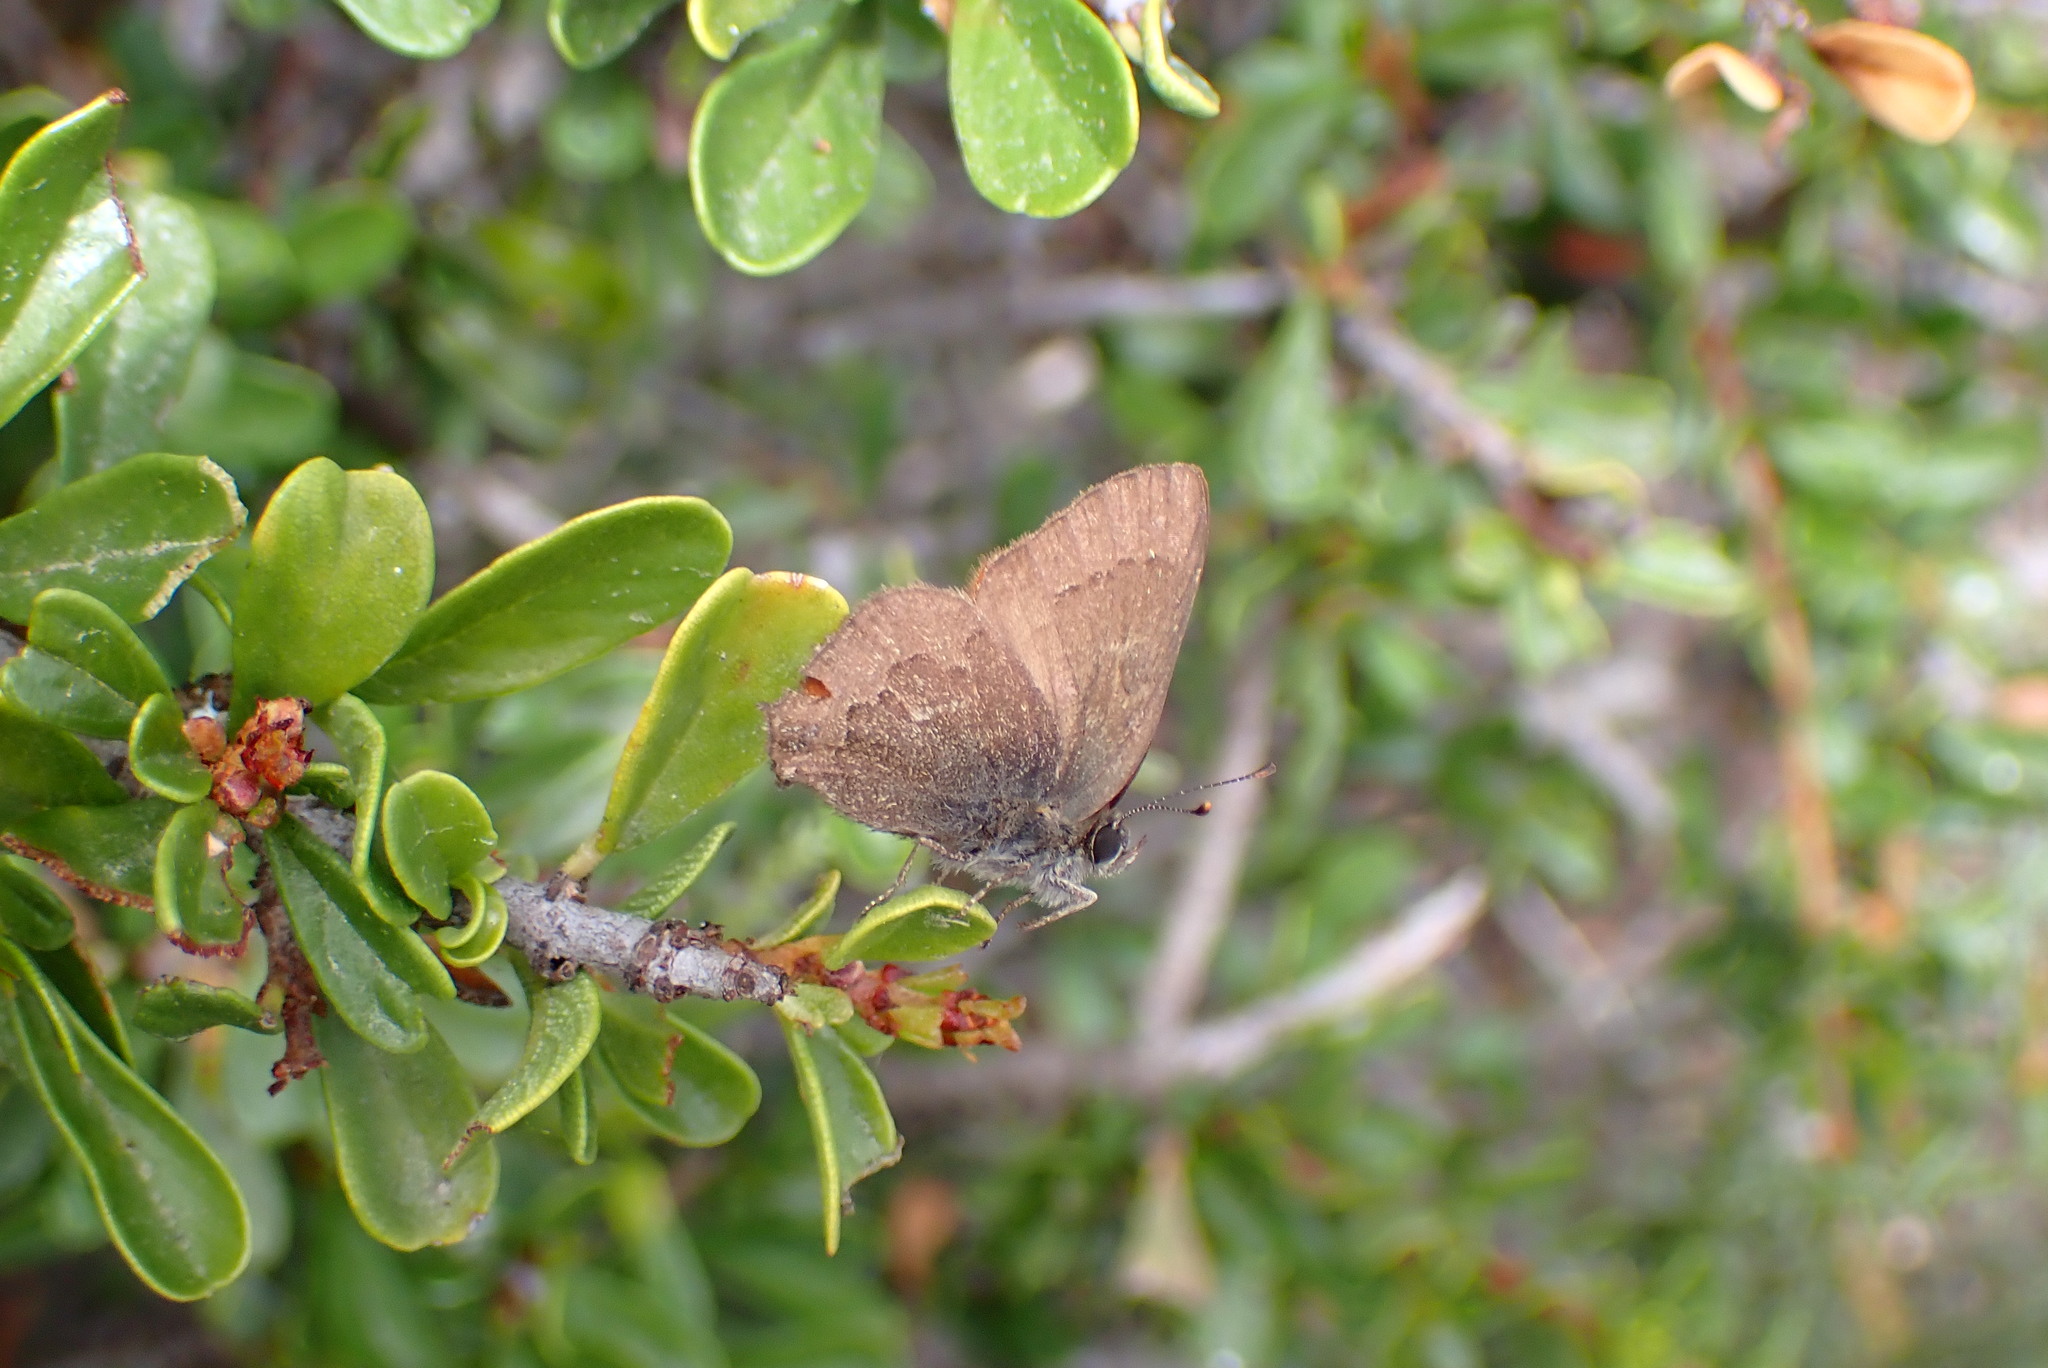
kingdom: Animalia
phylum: Arthropoda
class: Insecta
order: Lepidoptera
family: Lycaenidae
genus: Strymon
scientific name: Strymon saepium
